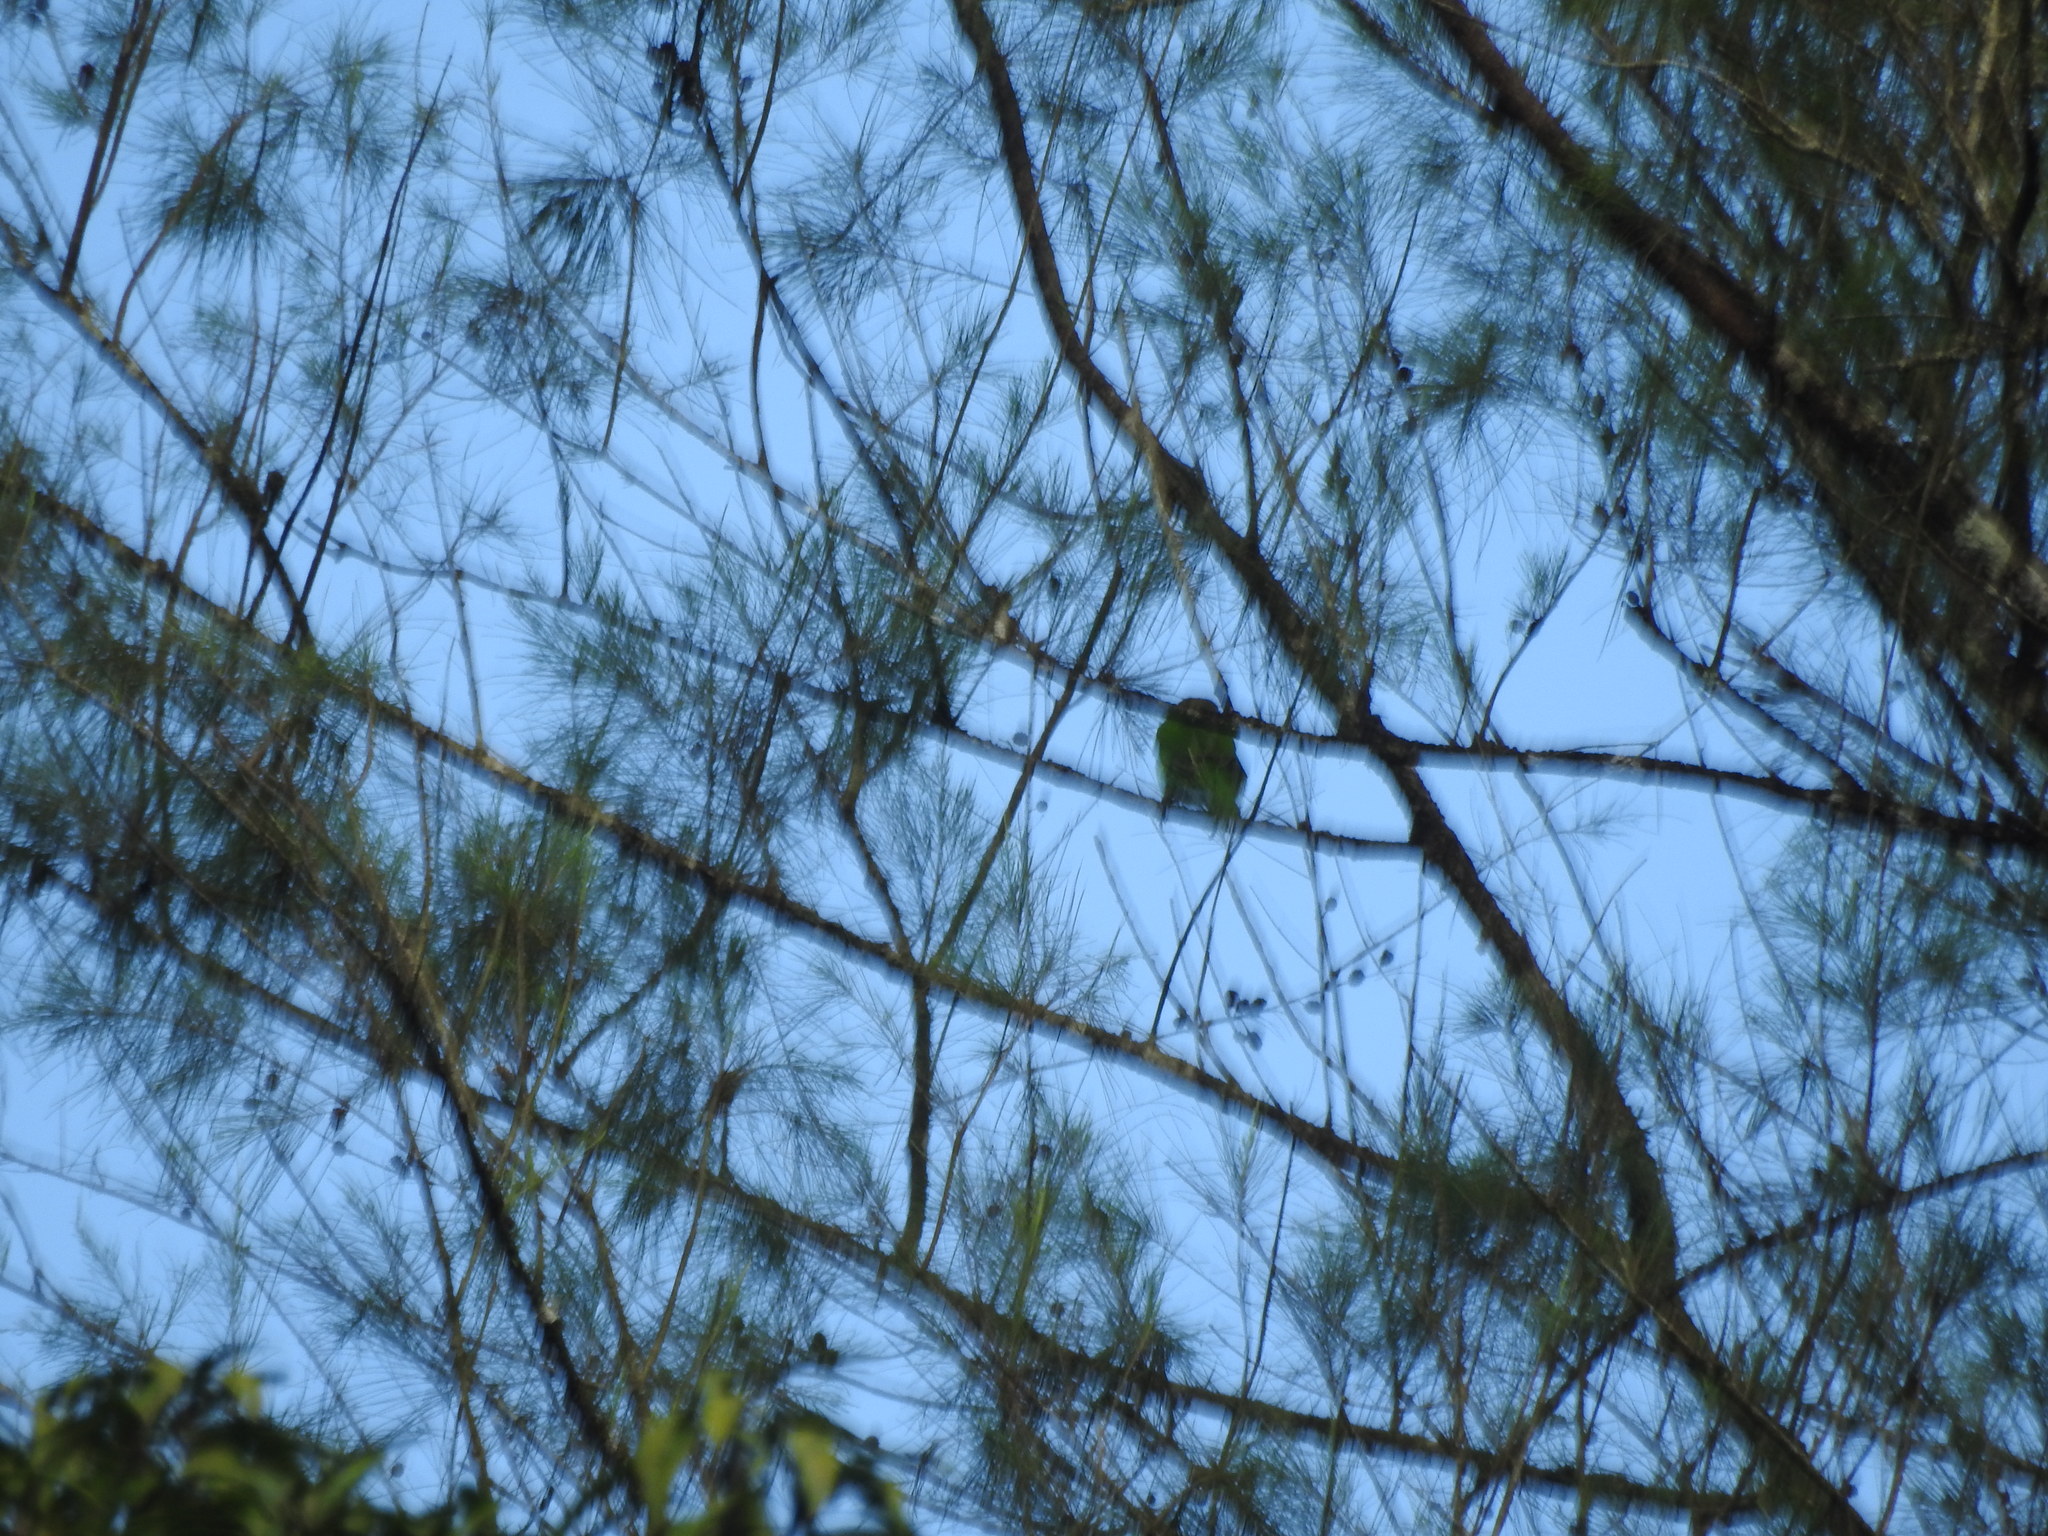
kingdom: Animalia
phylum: Chordata
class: Aves
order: Piciformes
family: Megalaimidae
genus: Psilopogon
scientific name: Psilopogon viridis
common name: White-cheeked barbet
